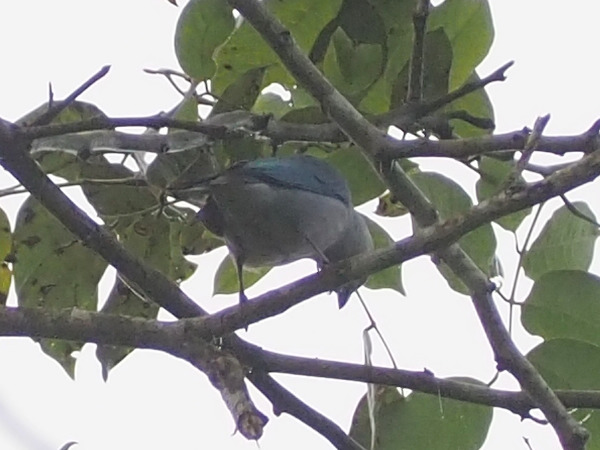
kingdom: Animalia
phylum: Chordata
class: Aves
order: Passeriformes
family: Thraupidae
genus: Thraupis
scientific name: Thraupis episcopus
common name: Blue-grey tanager
